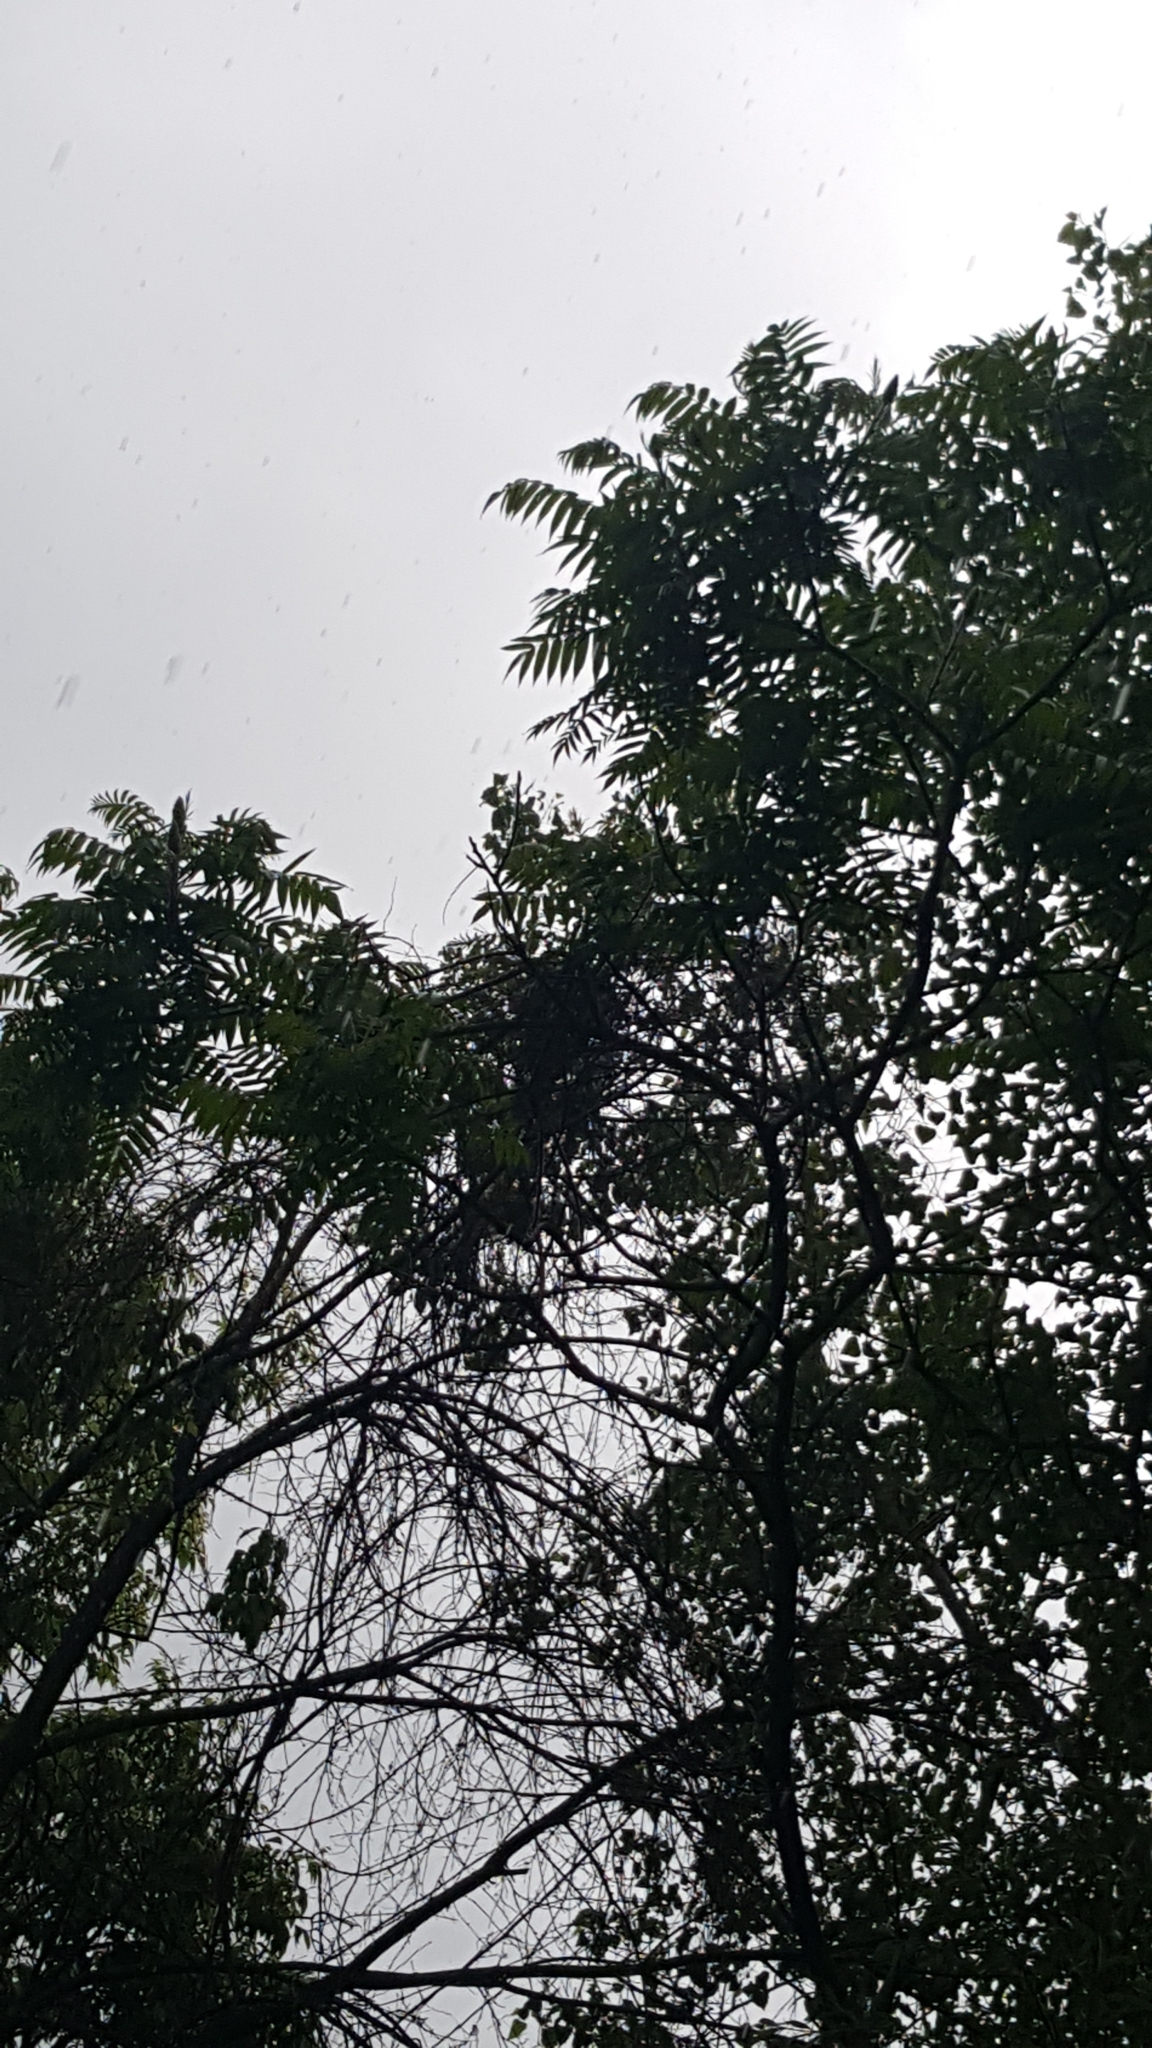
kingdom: Plantae
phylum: Tracheophyta
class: Magnoliopsida
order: Sapindales
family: Anacardiaceae
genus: Rhus
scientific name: Rhus typhina
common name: Staghorn sumac
